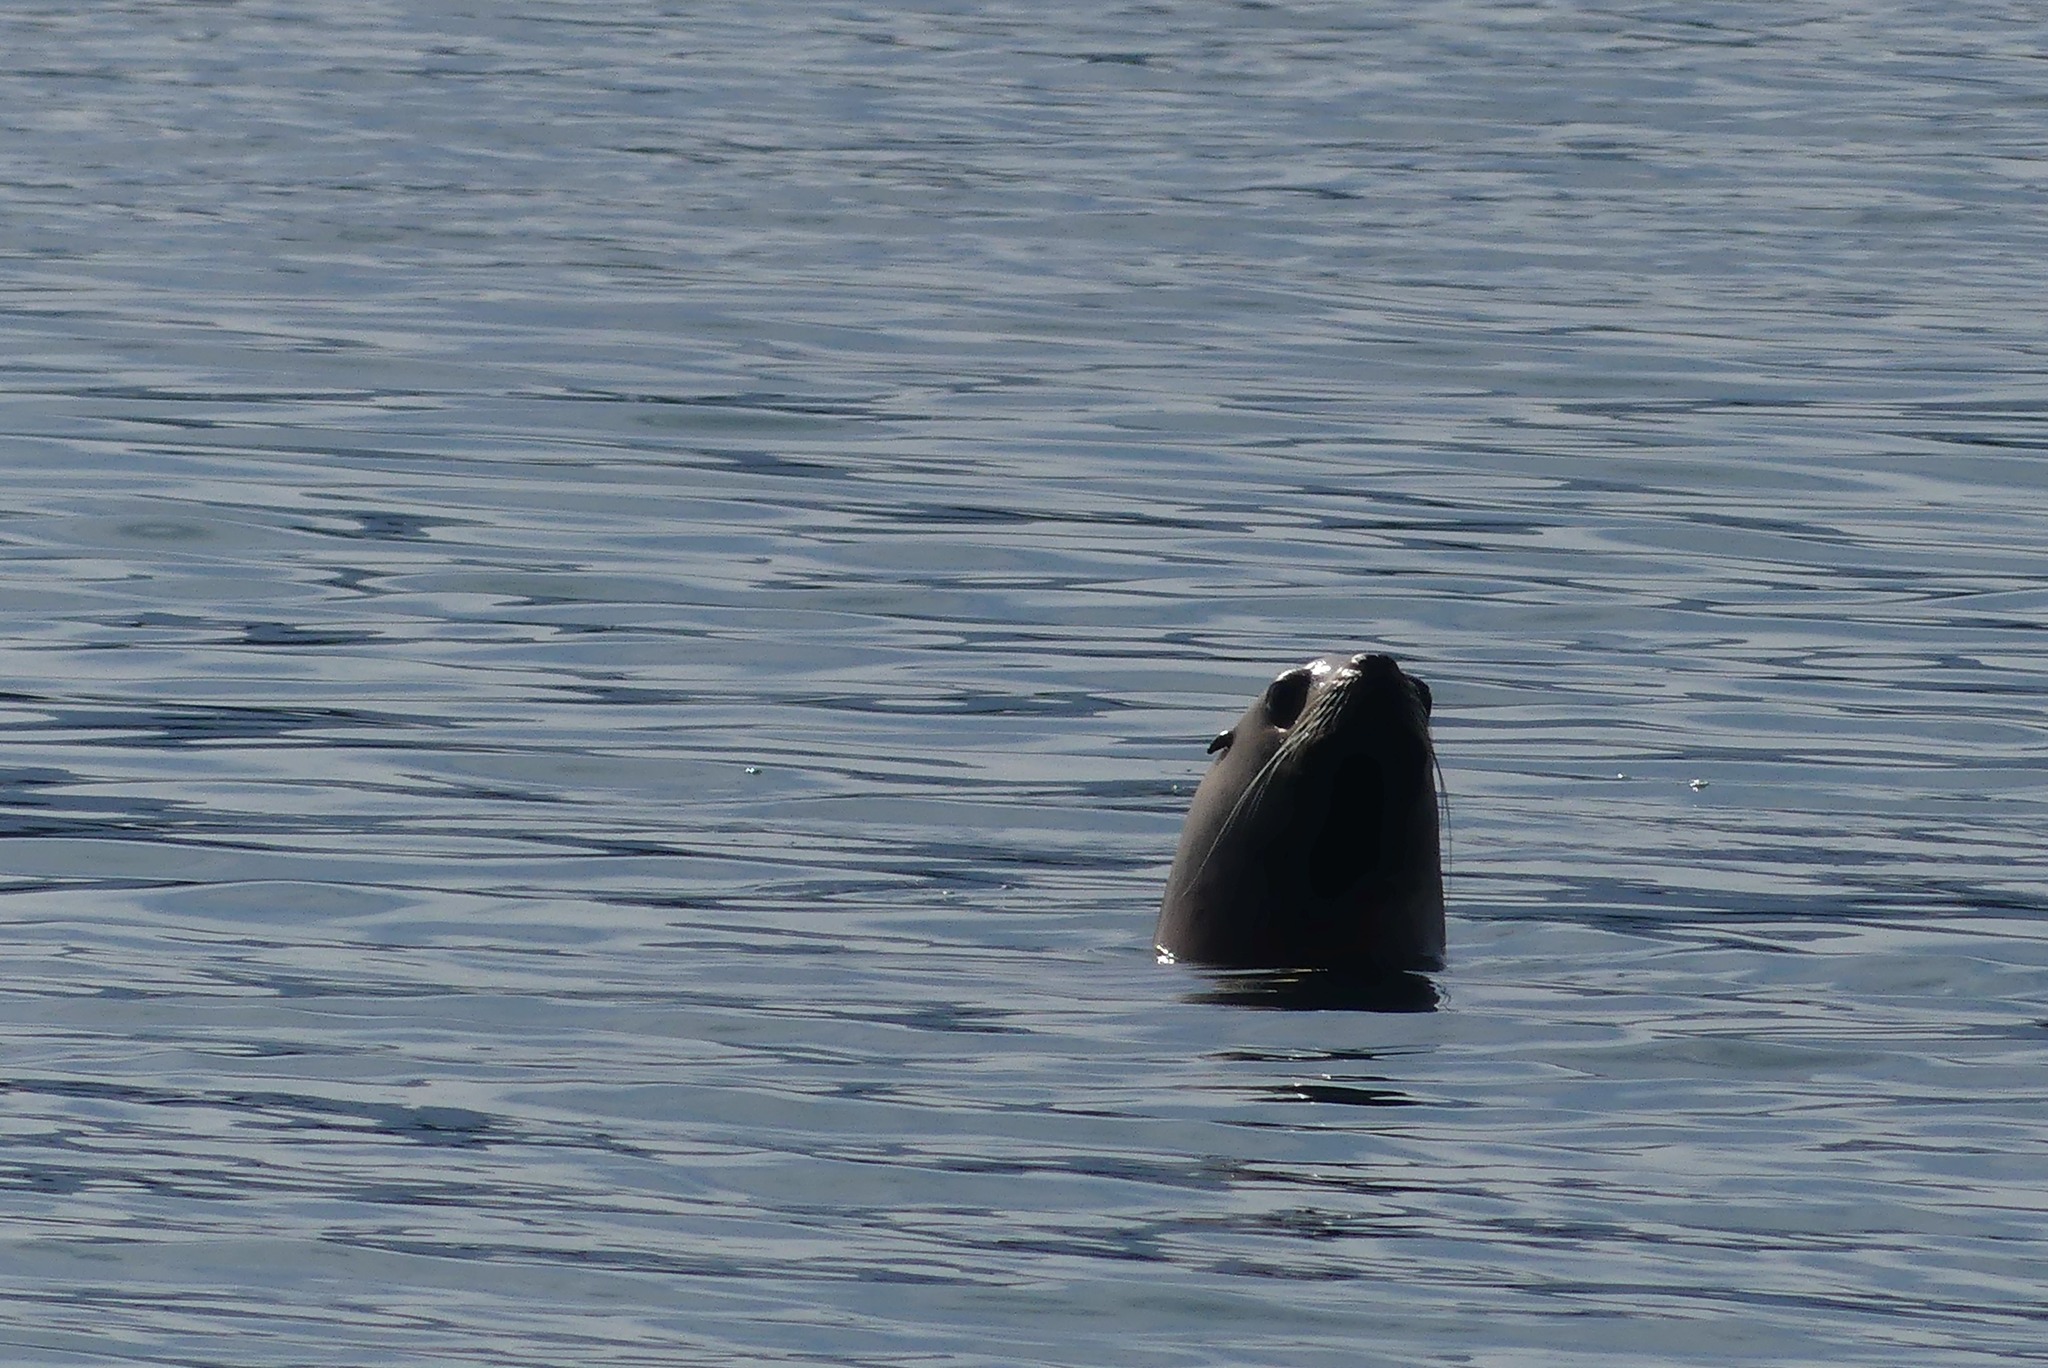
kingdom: Animalia
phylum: Chordata
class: Mammalia
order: Carnivora
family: Otariidae
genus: Eumetopias
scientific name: Eumetopias jubatus
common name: Steller sea lion
